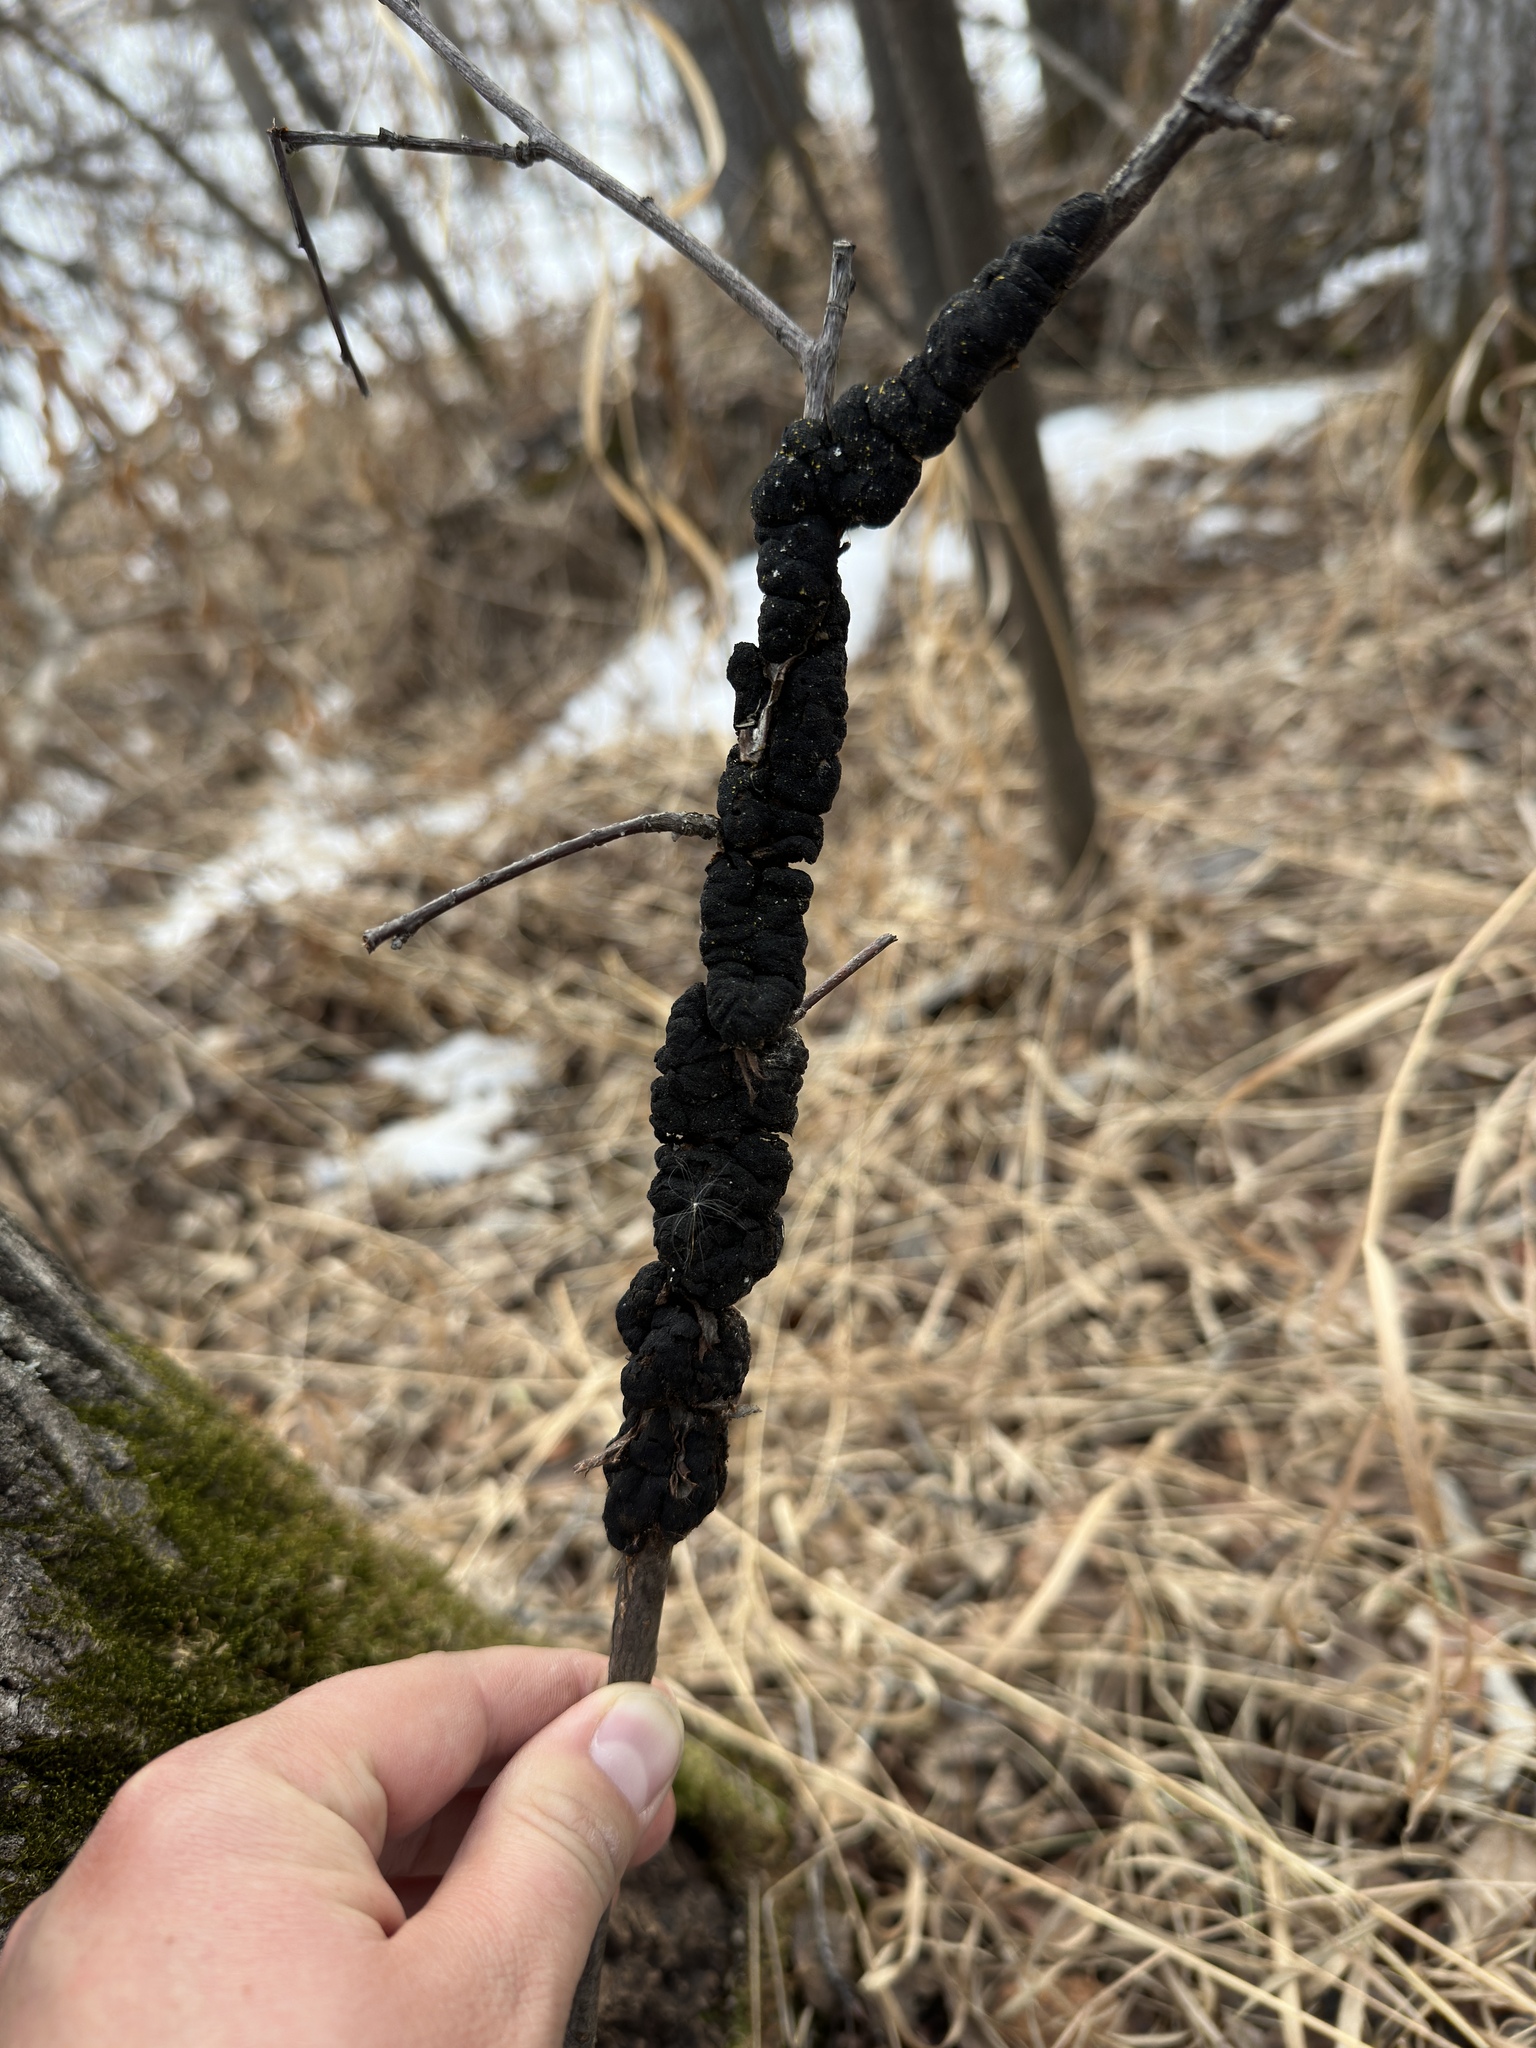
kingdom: Fungi
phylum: Ascomycota
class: Dothideomycetes
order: Venturiales
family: Venturiaceae
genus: Apiosporina
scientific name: Apiosporina morbosa
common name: Black knot
